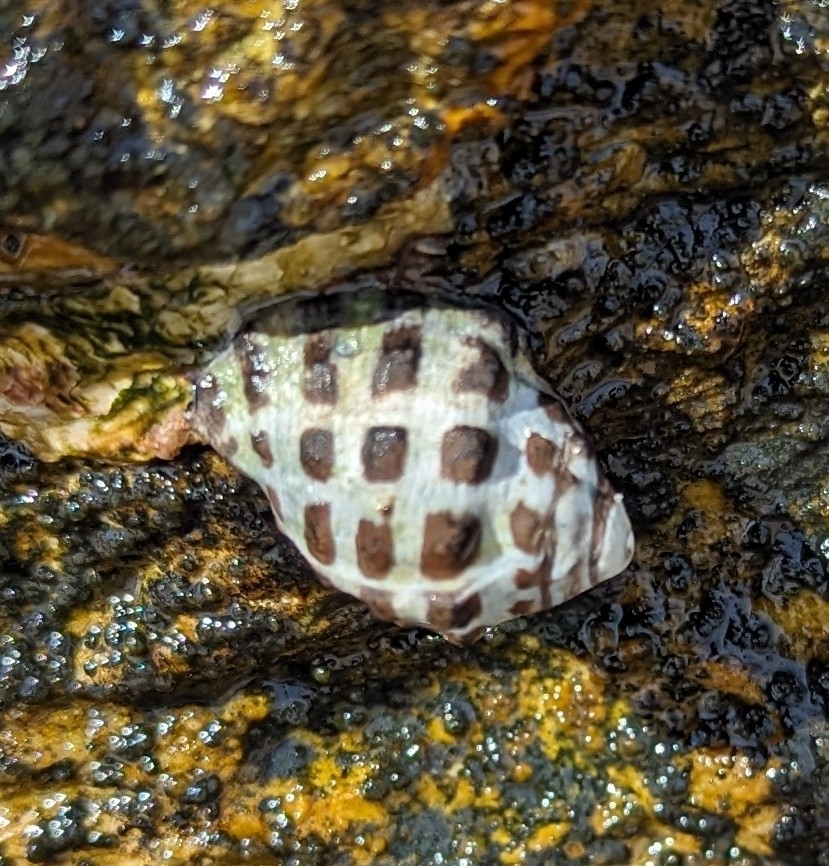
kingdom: Animalia
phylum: Mollusca
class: Gastropoda
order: Neogastropoda
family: Muricidae
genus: Tenguella
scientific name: Tenguella marginalba
